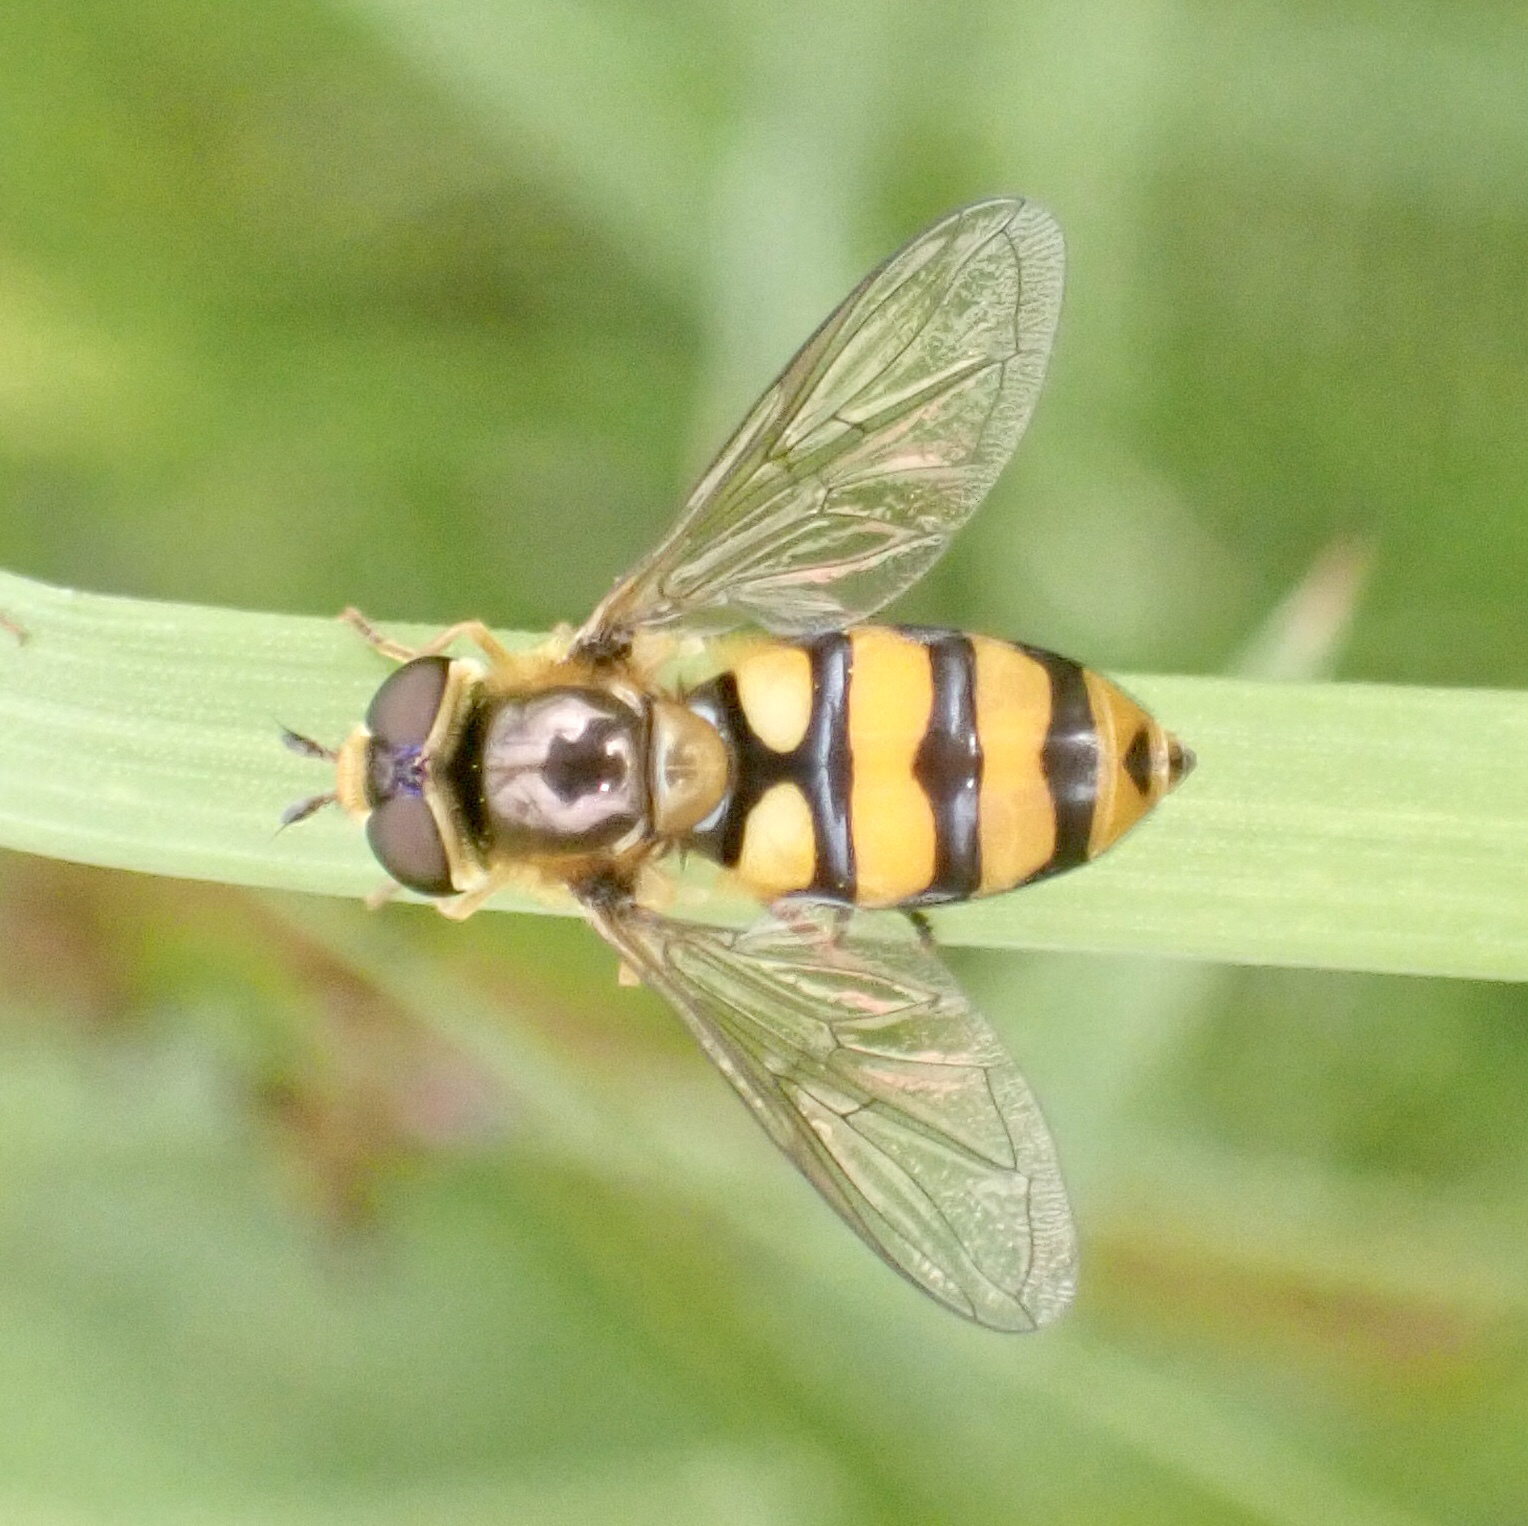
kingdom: Animalia
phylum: Arthropoda
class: Insecta
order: Diptera
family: Syrphidae
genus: Eupeodes
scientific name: Eupeodes latifasciatus
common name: Variable aphideater
